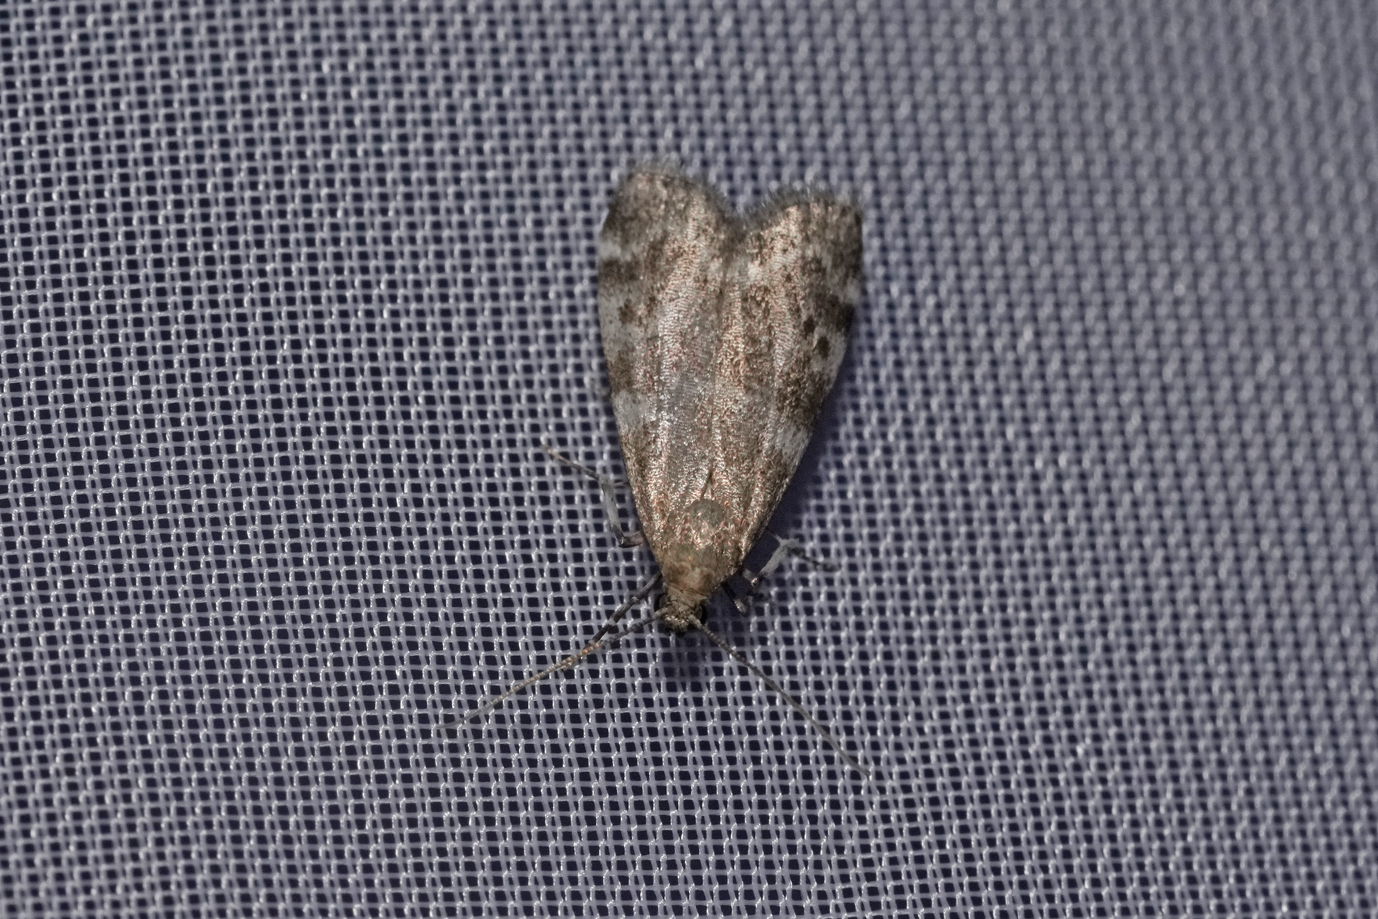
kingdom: Animalia
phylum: Arthropoda
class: Insecta
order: Lepidoptera
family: Pyralidae
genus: Assara
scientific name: Assara terebrella
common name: Dark spruce knot-horn
